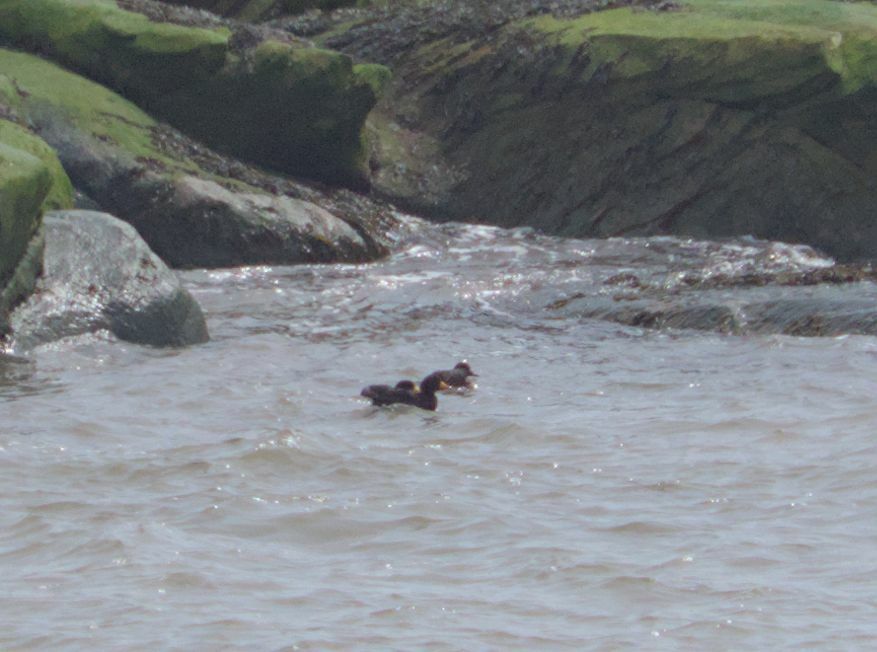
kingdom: Animalia
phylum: Chordata
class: Aves
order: Anseriformes
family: Anatidae
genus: Melanitta
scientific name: Melanitta americana
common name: Black scoter
